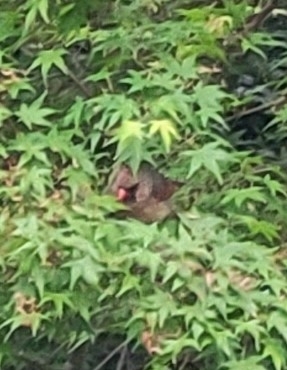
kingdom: Animalia
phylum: Chordata
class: Aves
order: Passeriformes
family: Cardinalidae
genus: Cardinalis
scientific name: Cardinalis cardinalis
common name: Northern cardinal
